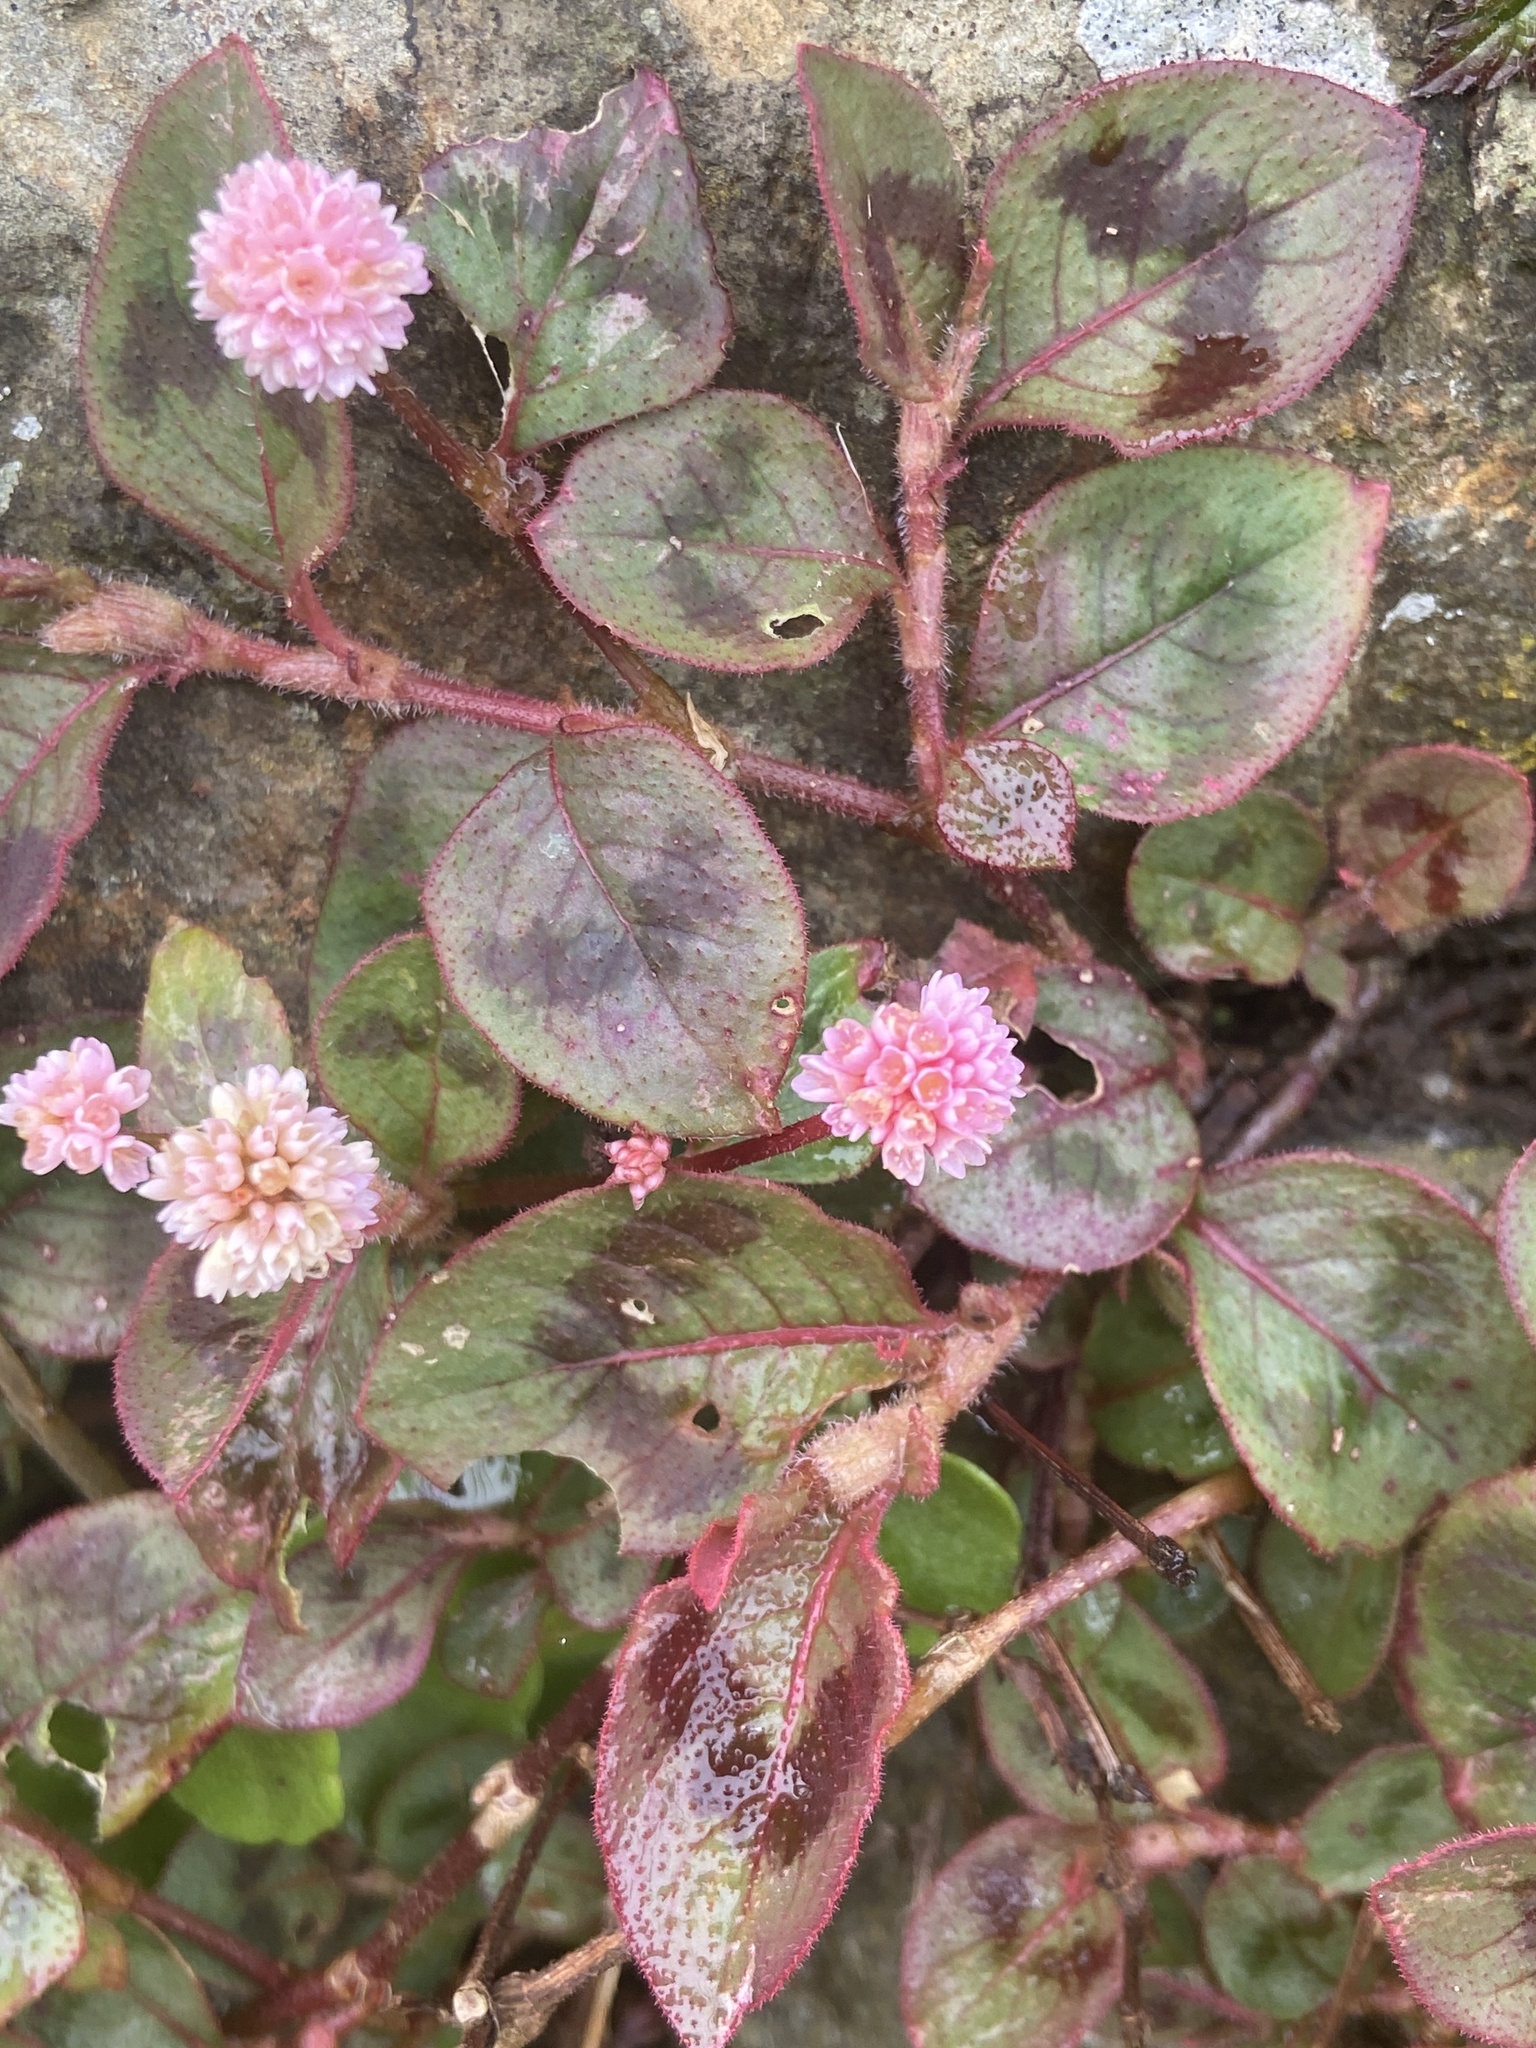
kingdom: Plantae
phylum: Tracheophyta
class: Magnoliopsida
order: Caryophyllales
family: Polygonaceae
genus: Persicaria
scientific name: Persicaria capitata
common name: Pinkhead smartweed
